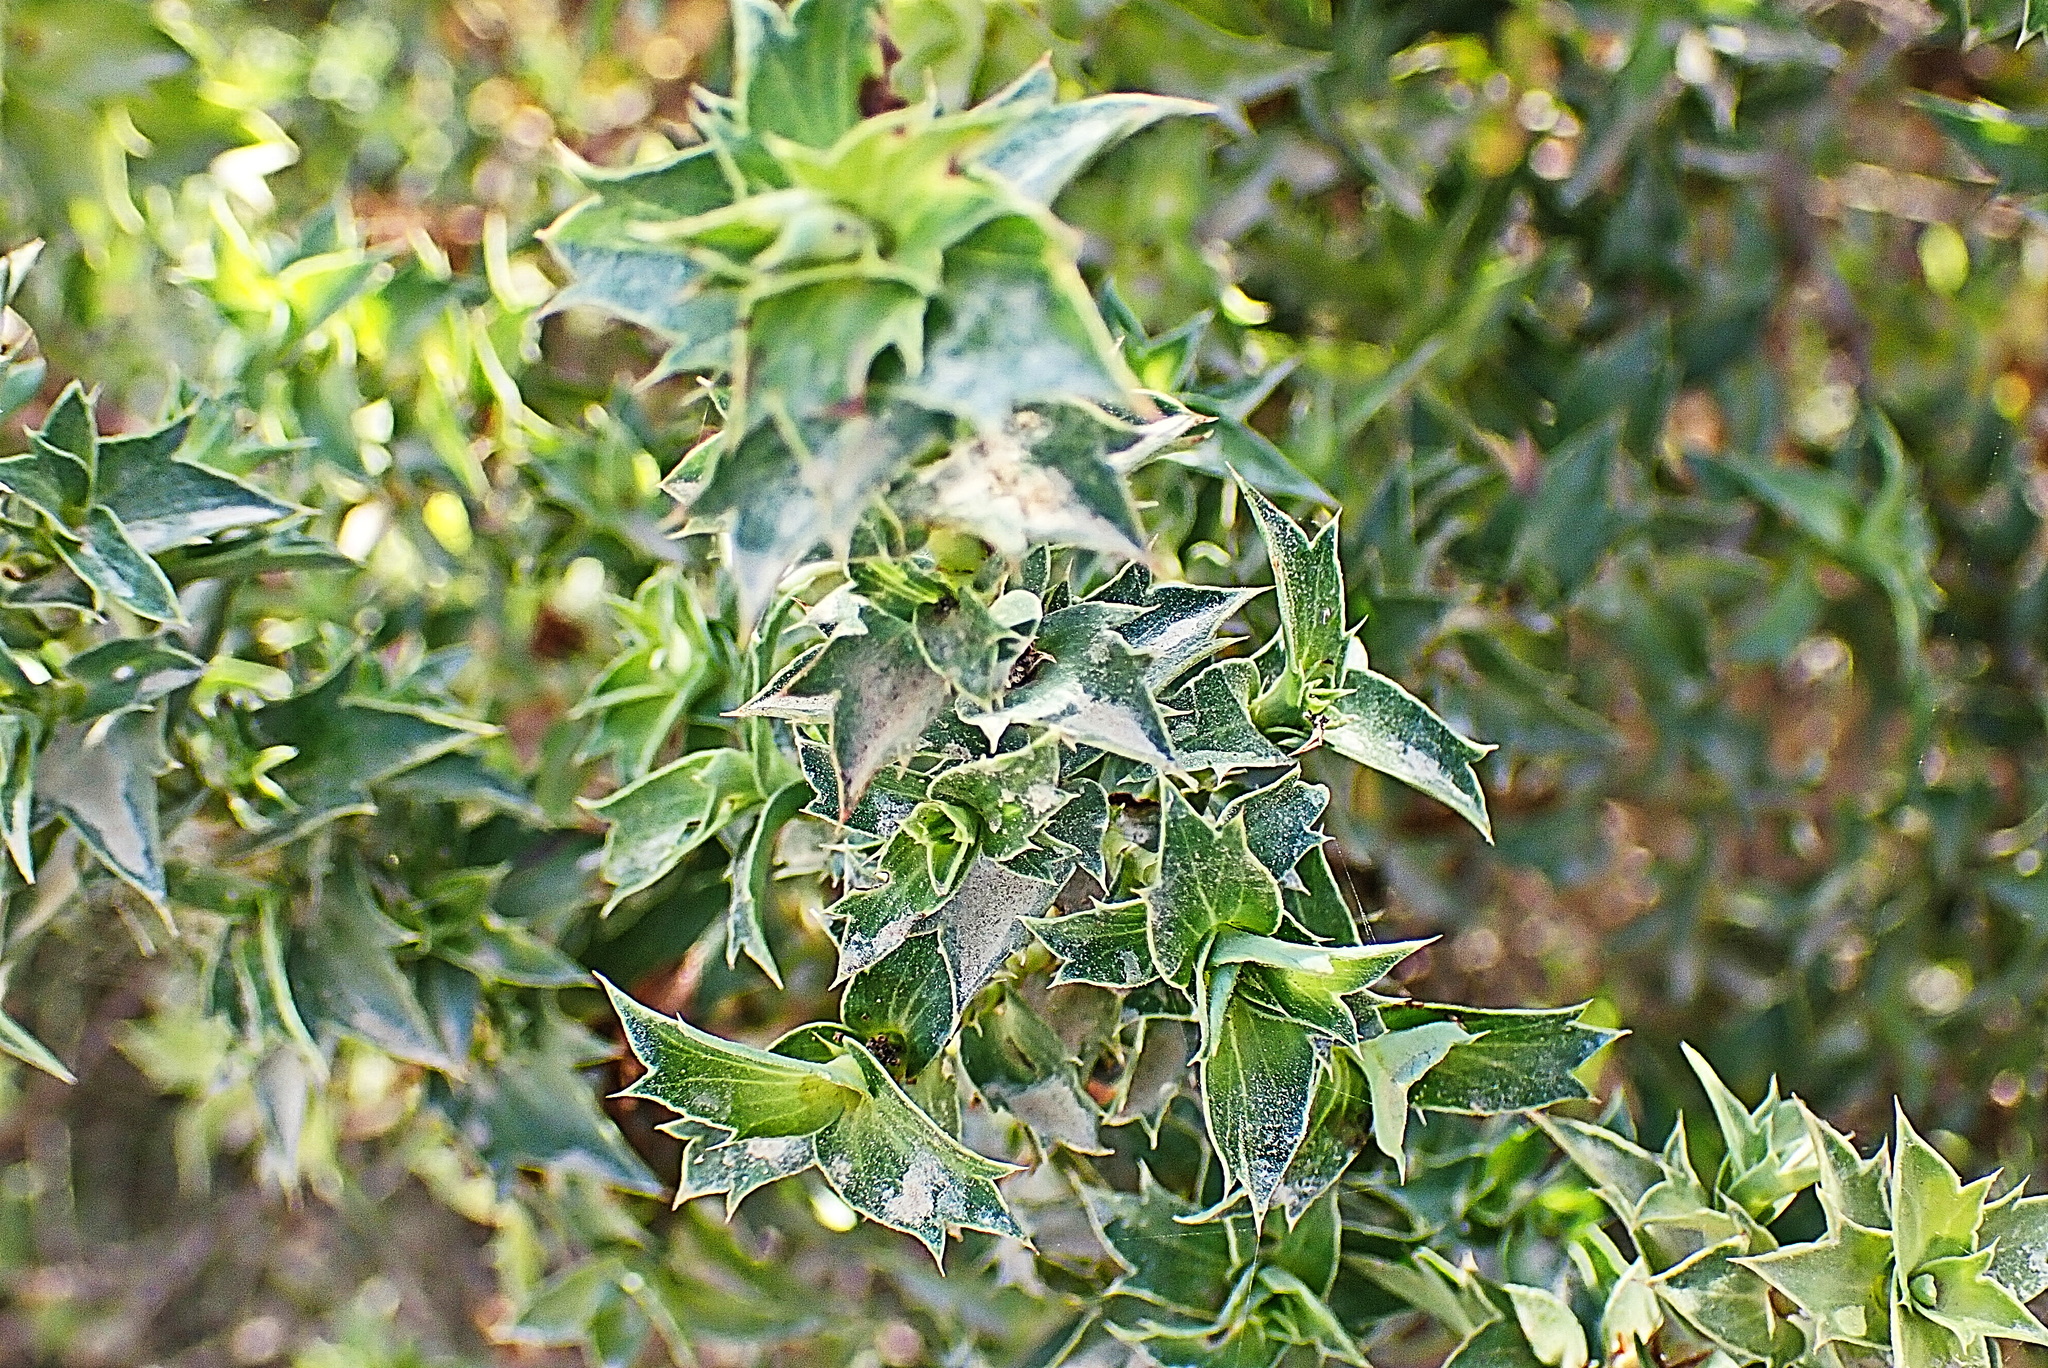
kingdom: Plantae
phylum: Tracheophyta
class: Magnoliopsida
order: Rosales
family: Rosaceae
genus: Cliffortia
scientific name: Cliffortia ilicifolia
